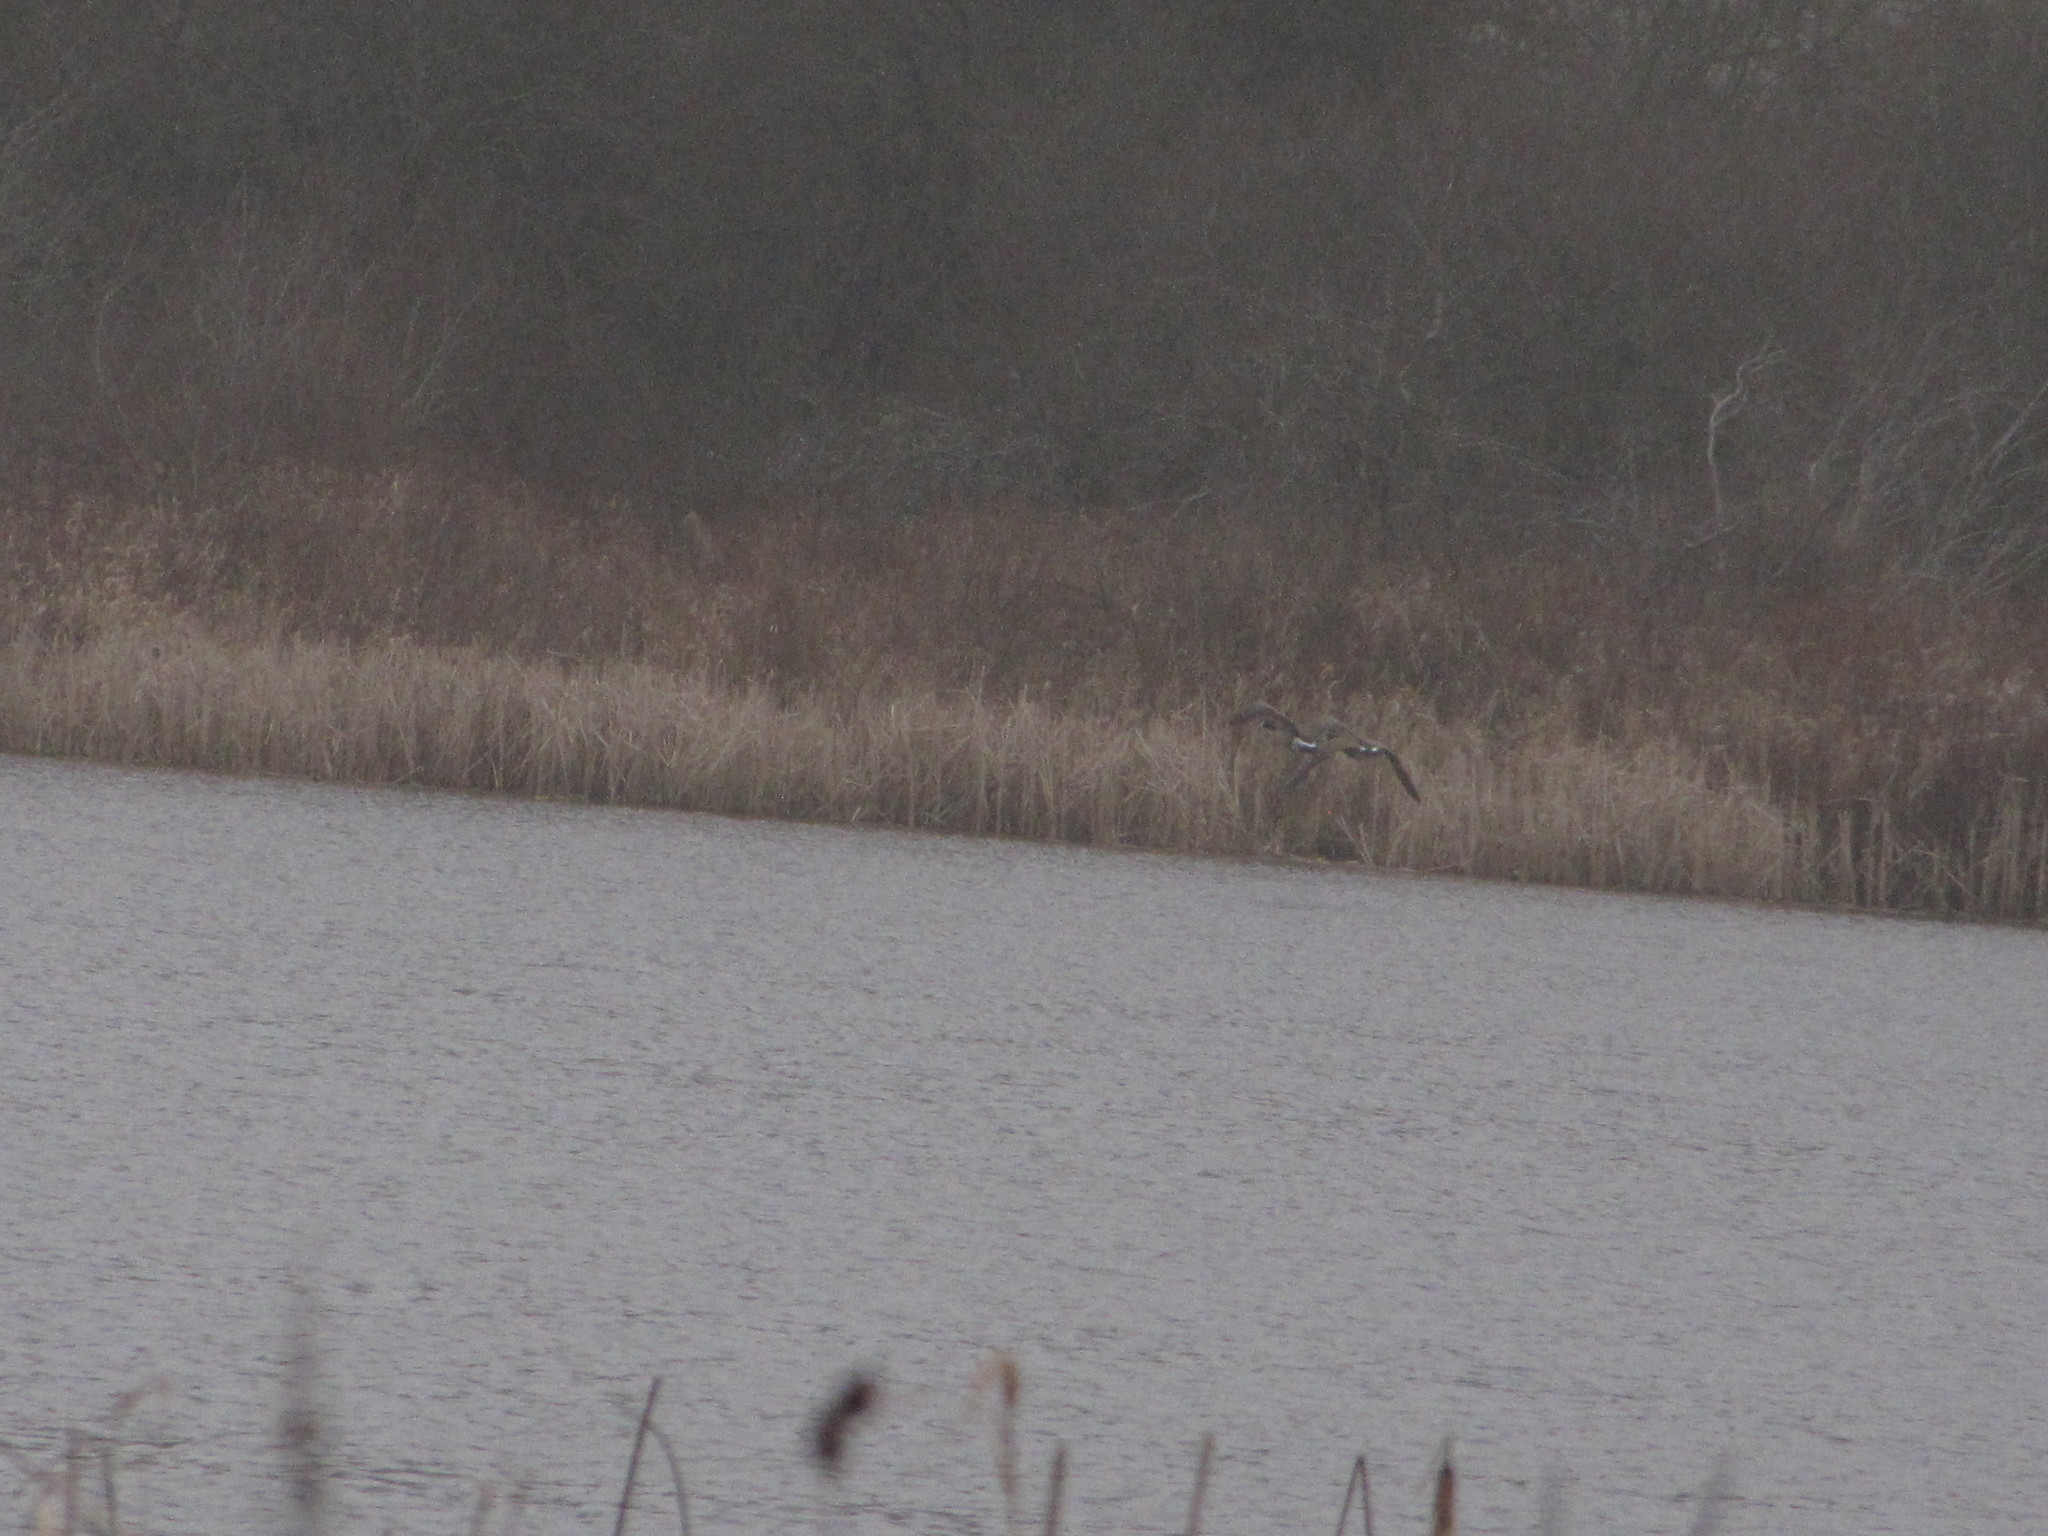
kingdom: Animalia
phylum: Chordata
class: Aves
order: Anseriformes
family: Anatidae
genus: Branta
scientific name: Branta canadensis
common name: Canada goose
